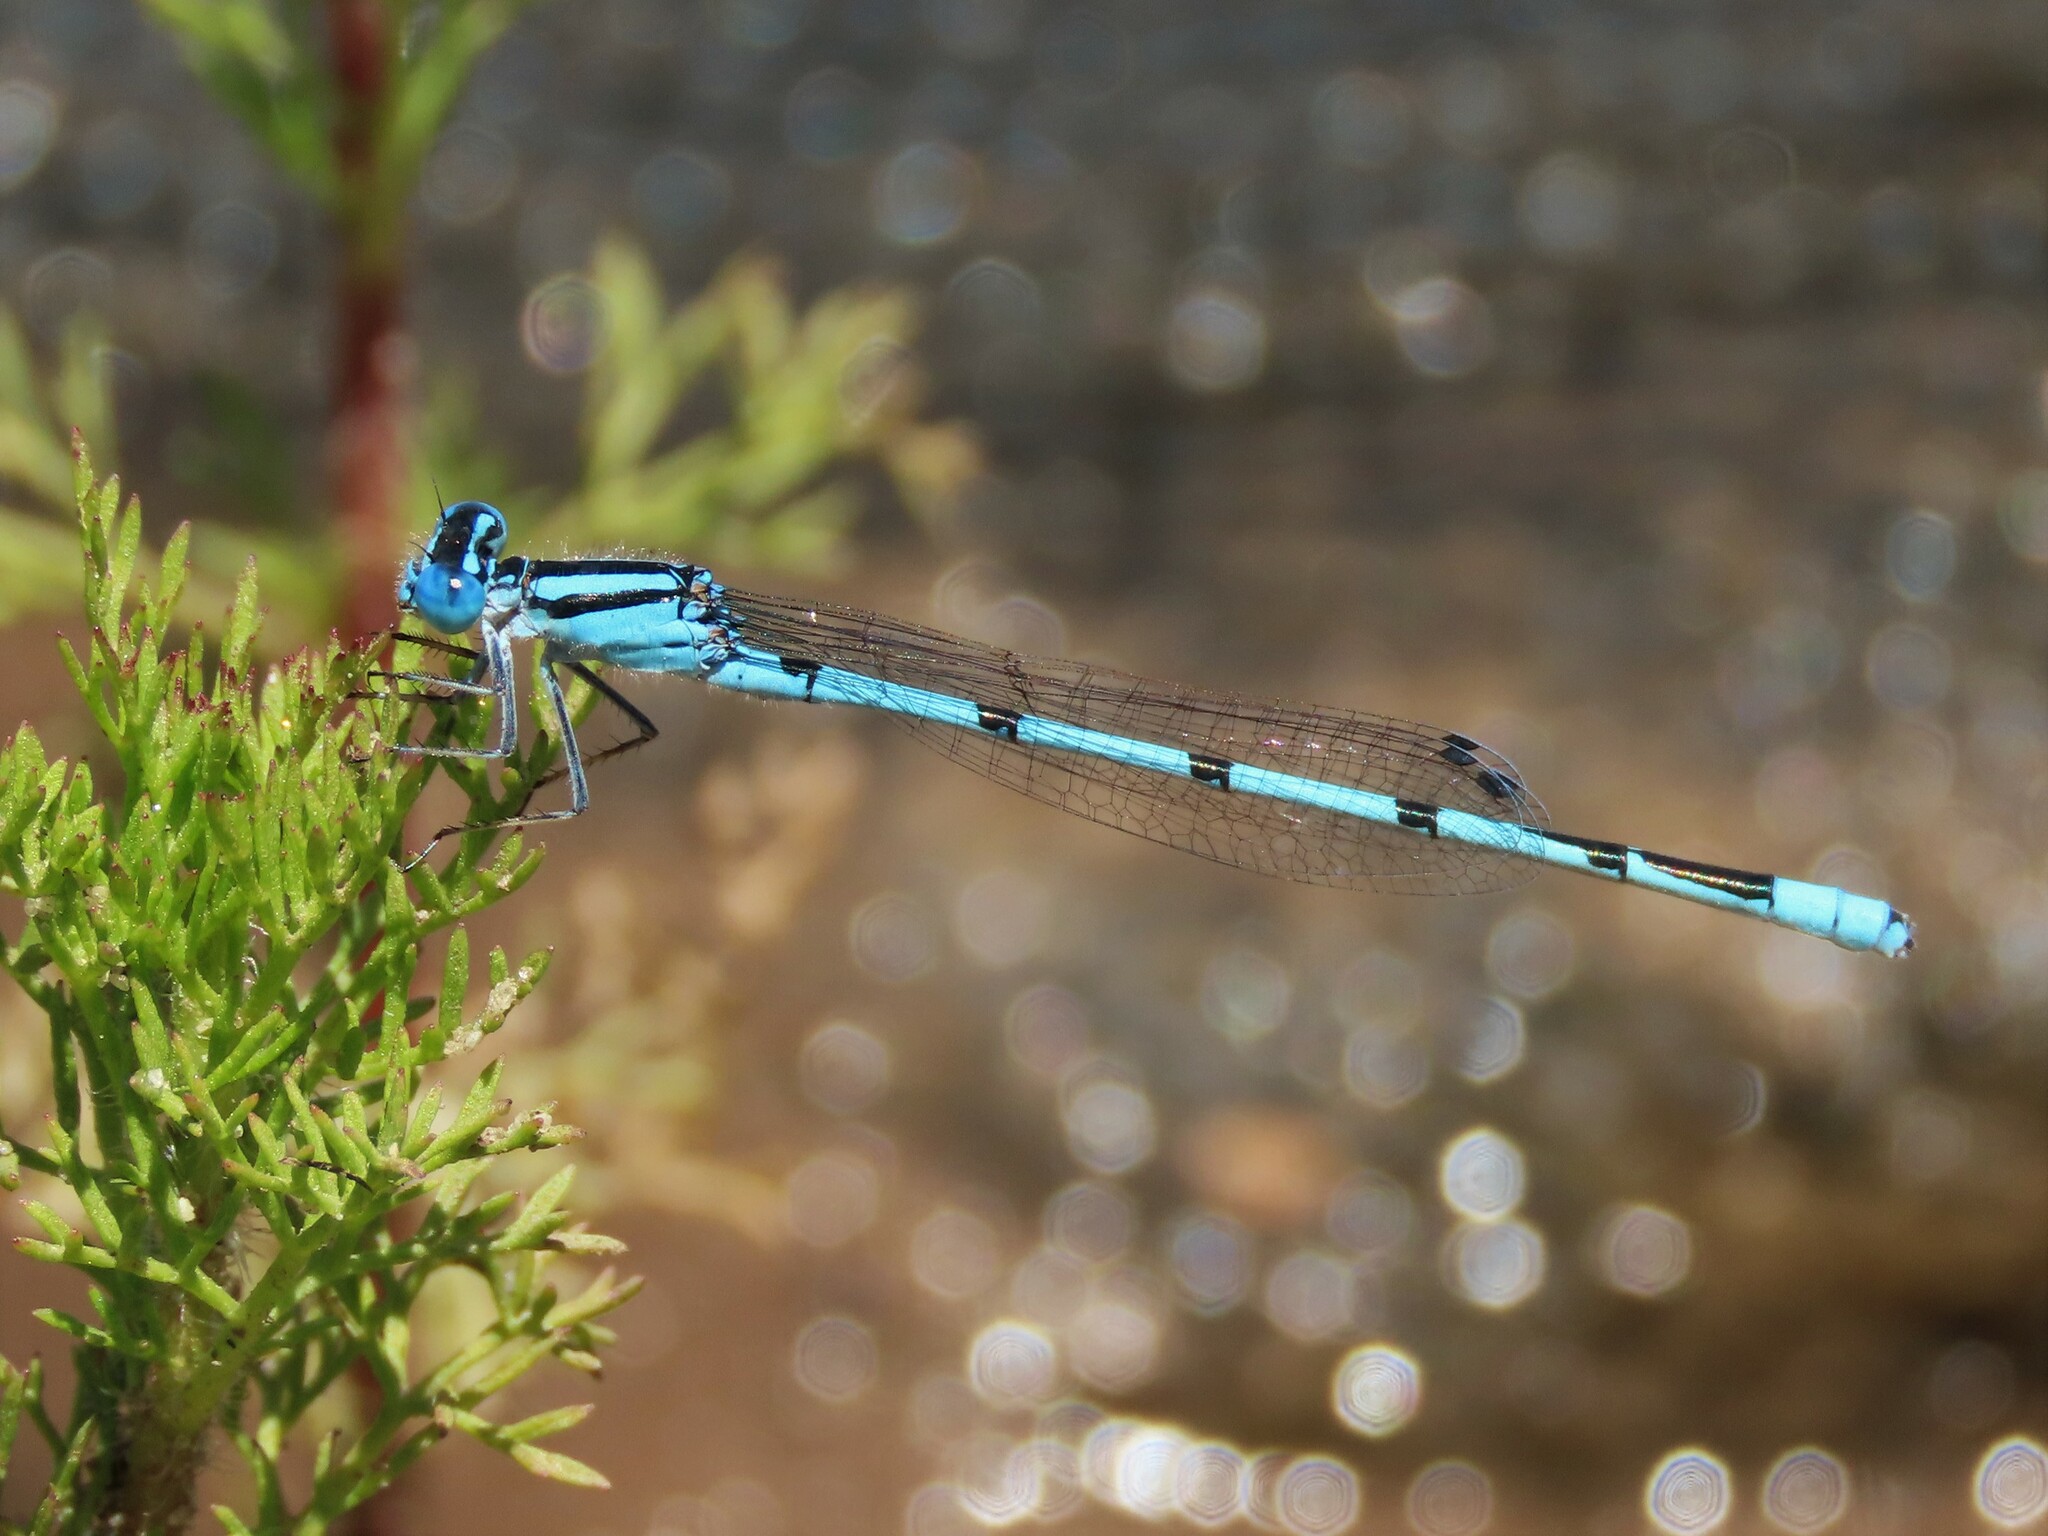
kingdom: Animalia
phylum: Arthropoda
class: Insecta
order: Odonata
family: Coenagrionidae
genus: Enallagma
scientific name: Enallagma doubledayi
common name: Atlantic bluet
